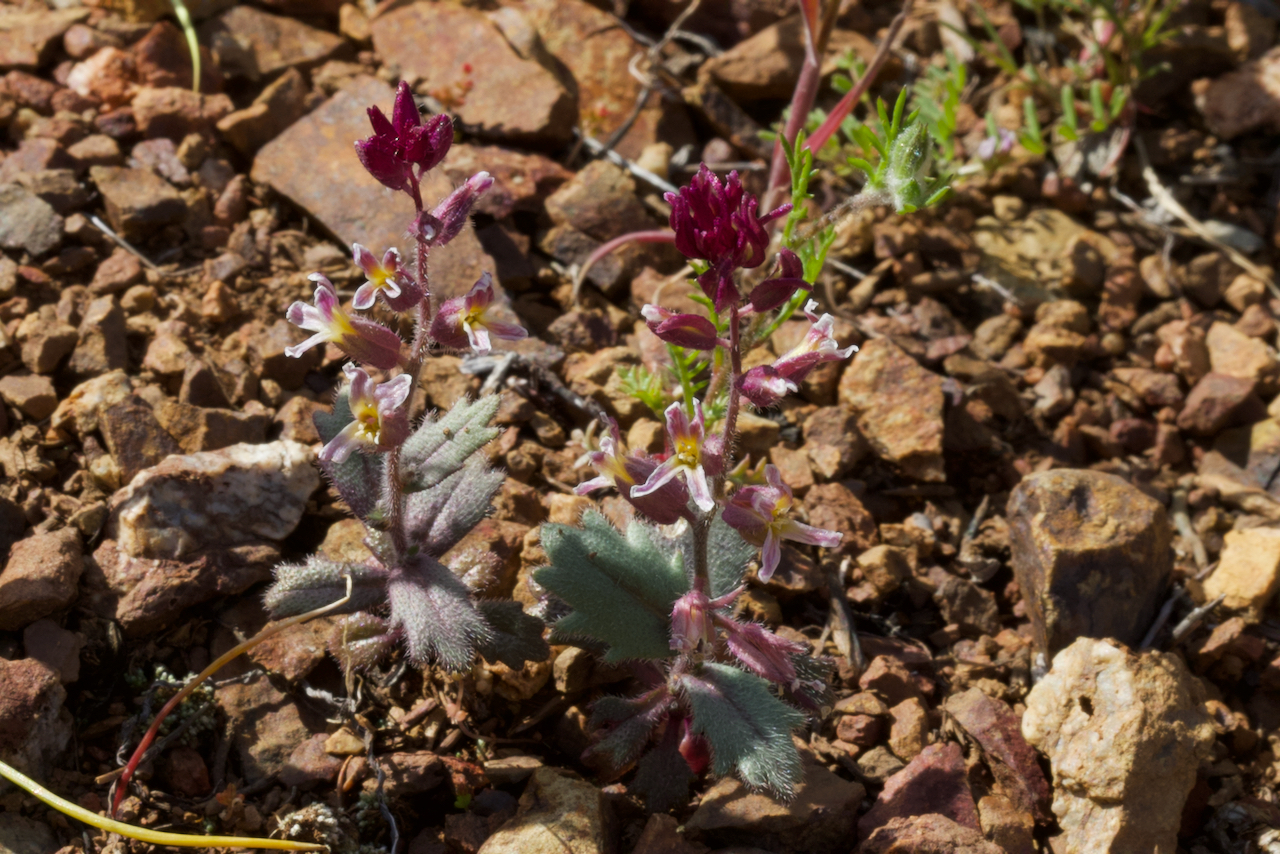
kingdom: Plantae
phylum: Tracheophyta
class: Magnoliopsida
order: Brassicales
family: Brassicaceae
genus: Streptanthus
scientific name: Streptanthus hispidus
